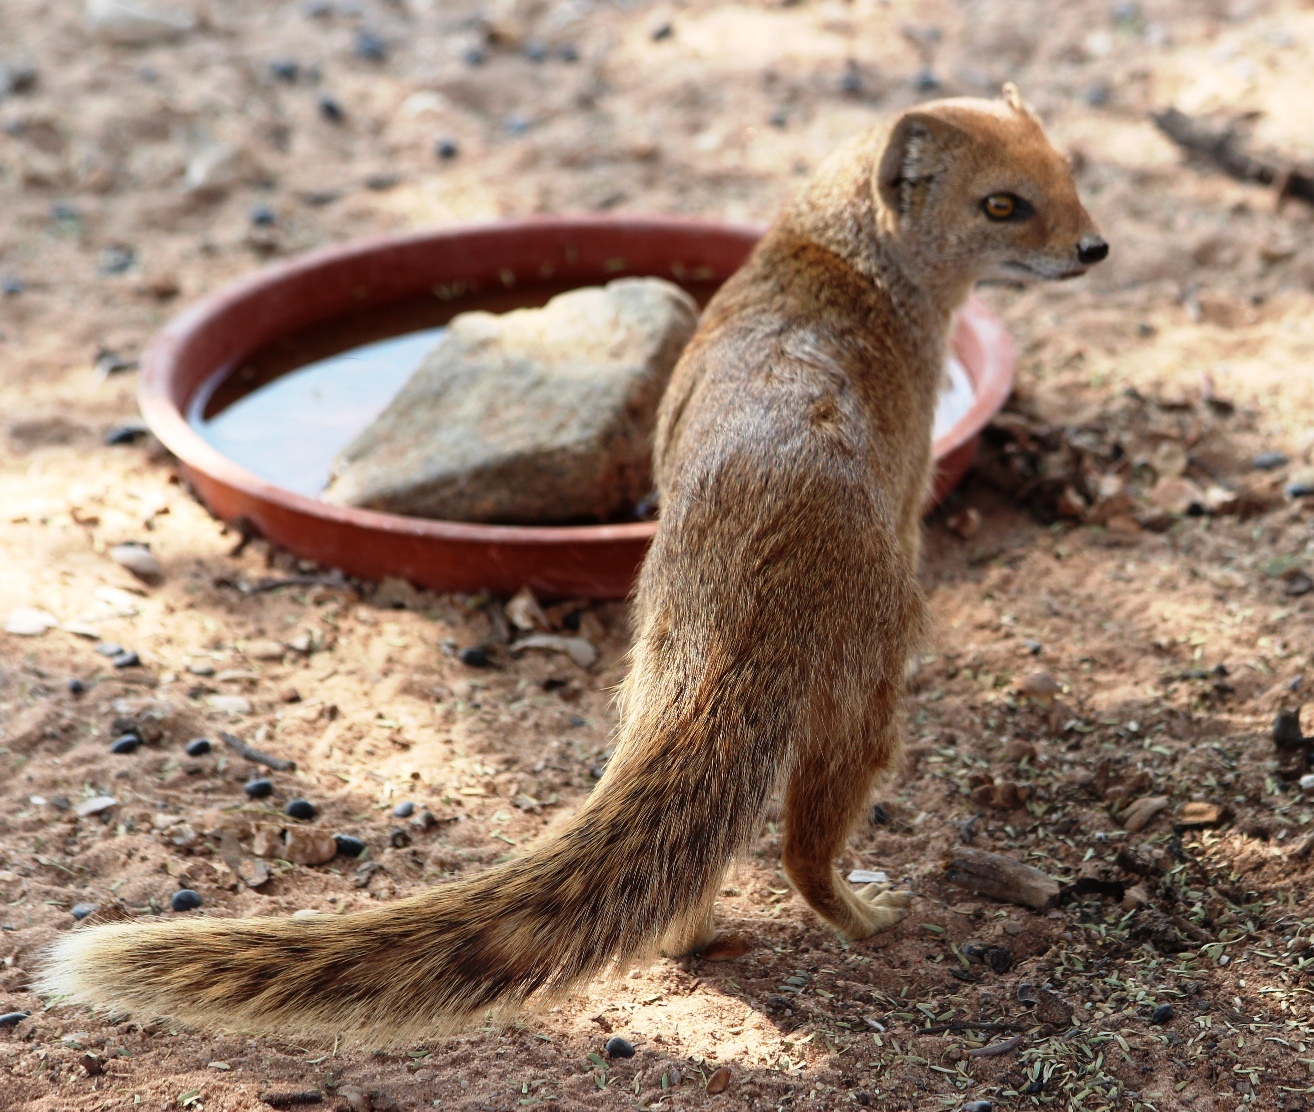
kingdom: Animalia
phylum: Chordata
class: Mammalia
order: Carnivora
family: Herpestidae
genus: Cynictis
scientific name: Cynictis penicillata
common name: Yellow mongoose
